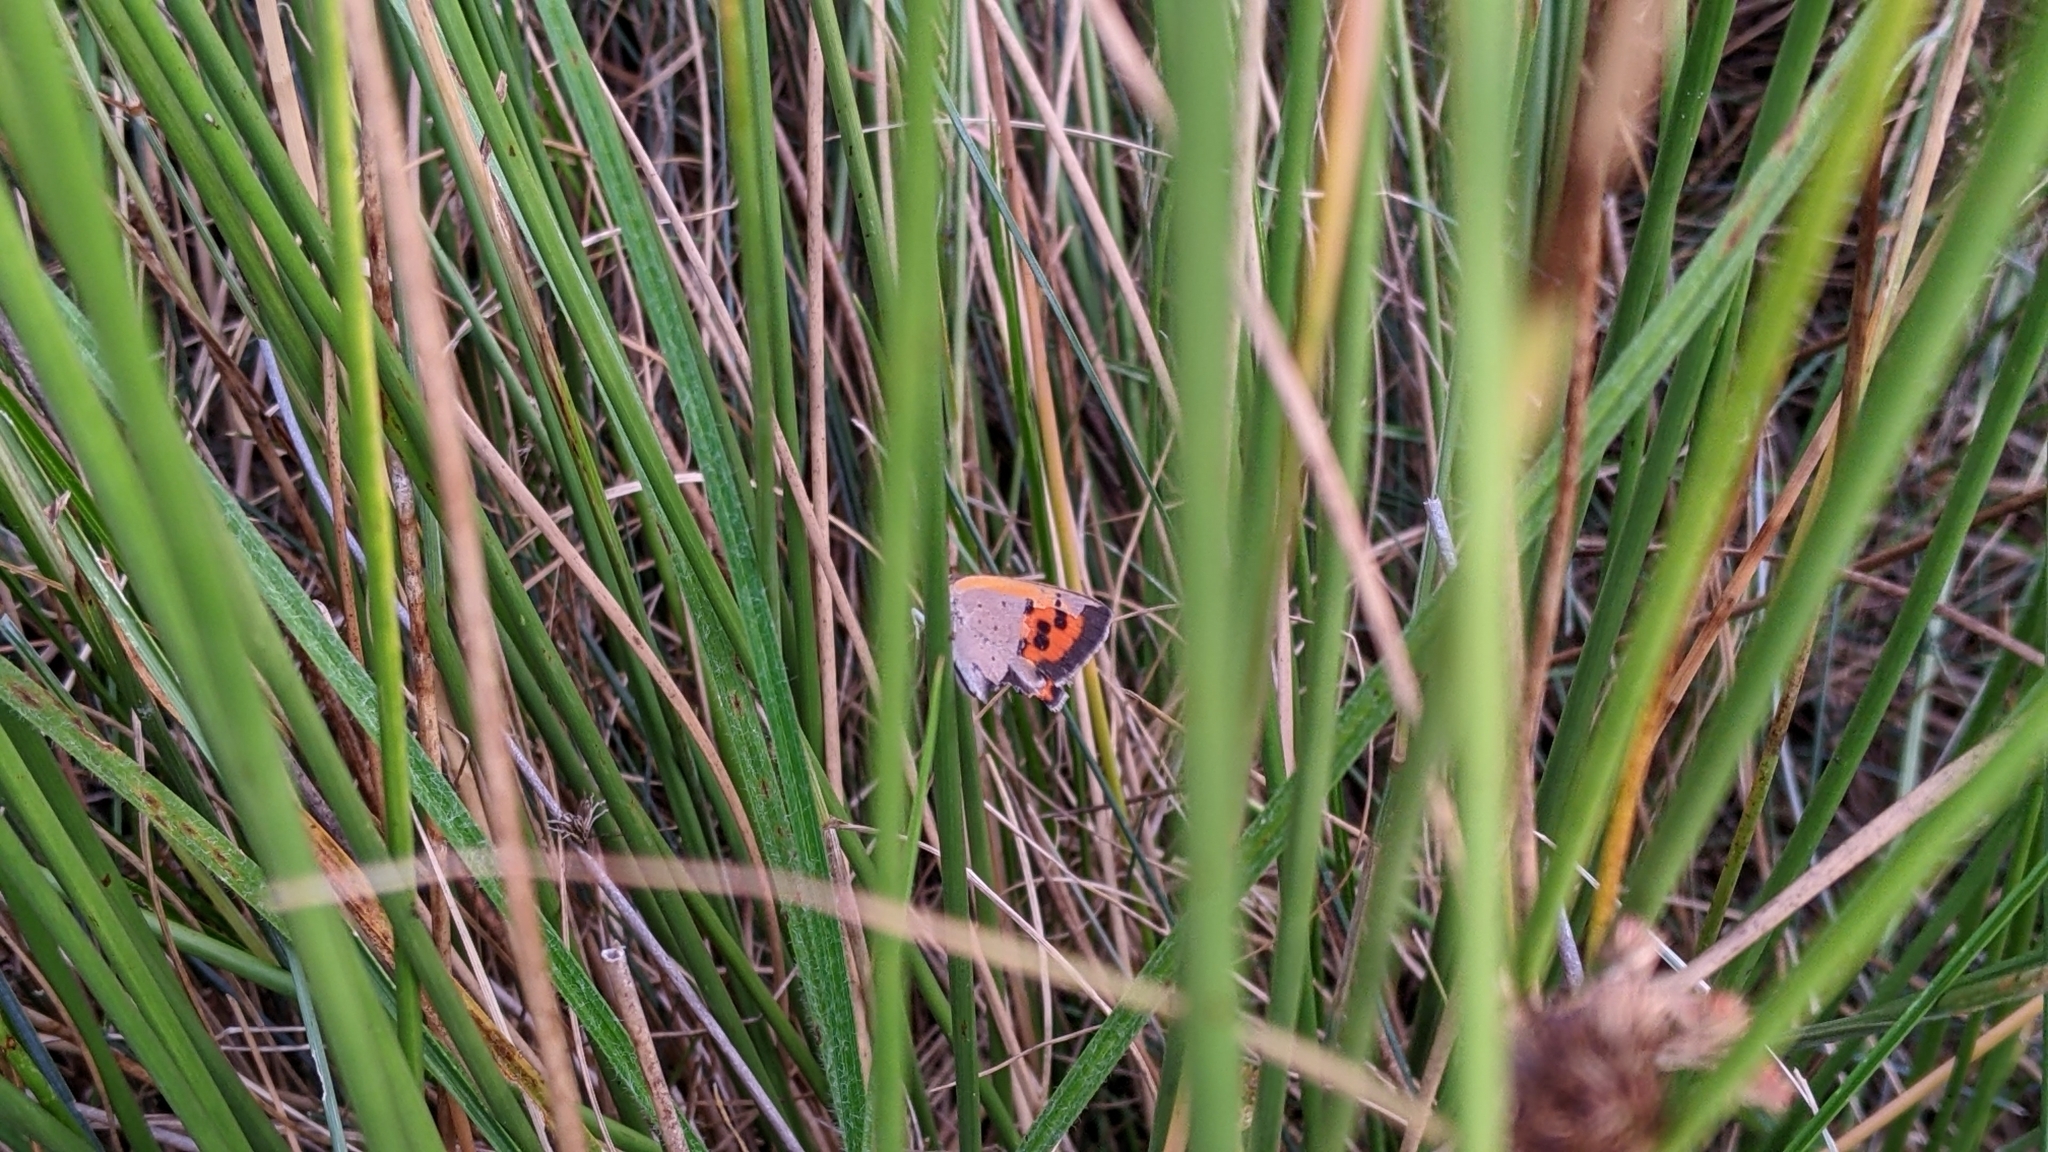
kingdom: Animalia
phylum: Arthropoda
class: Insecta
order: Lepidoptera
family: Lycaenidae
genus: Lycaena
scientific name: Lycaena phlaeas
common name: Small copper
